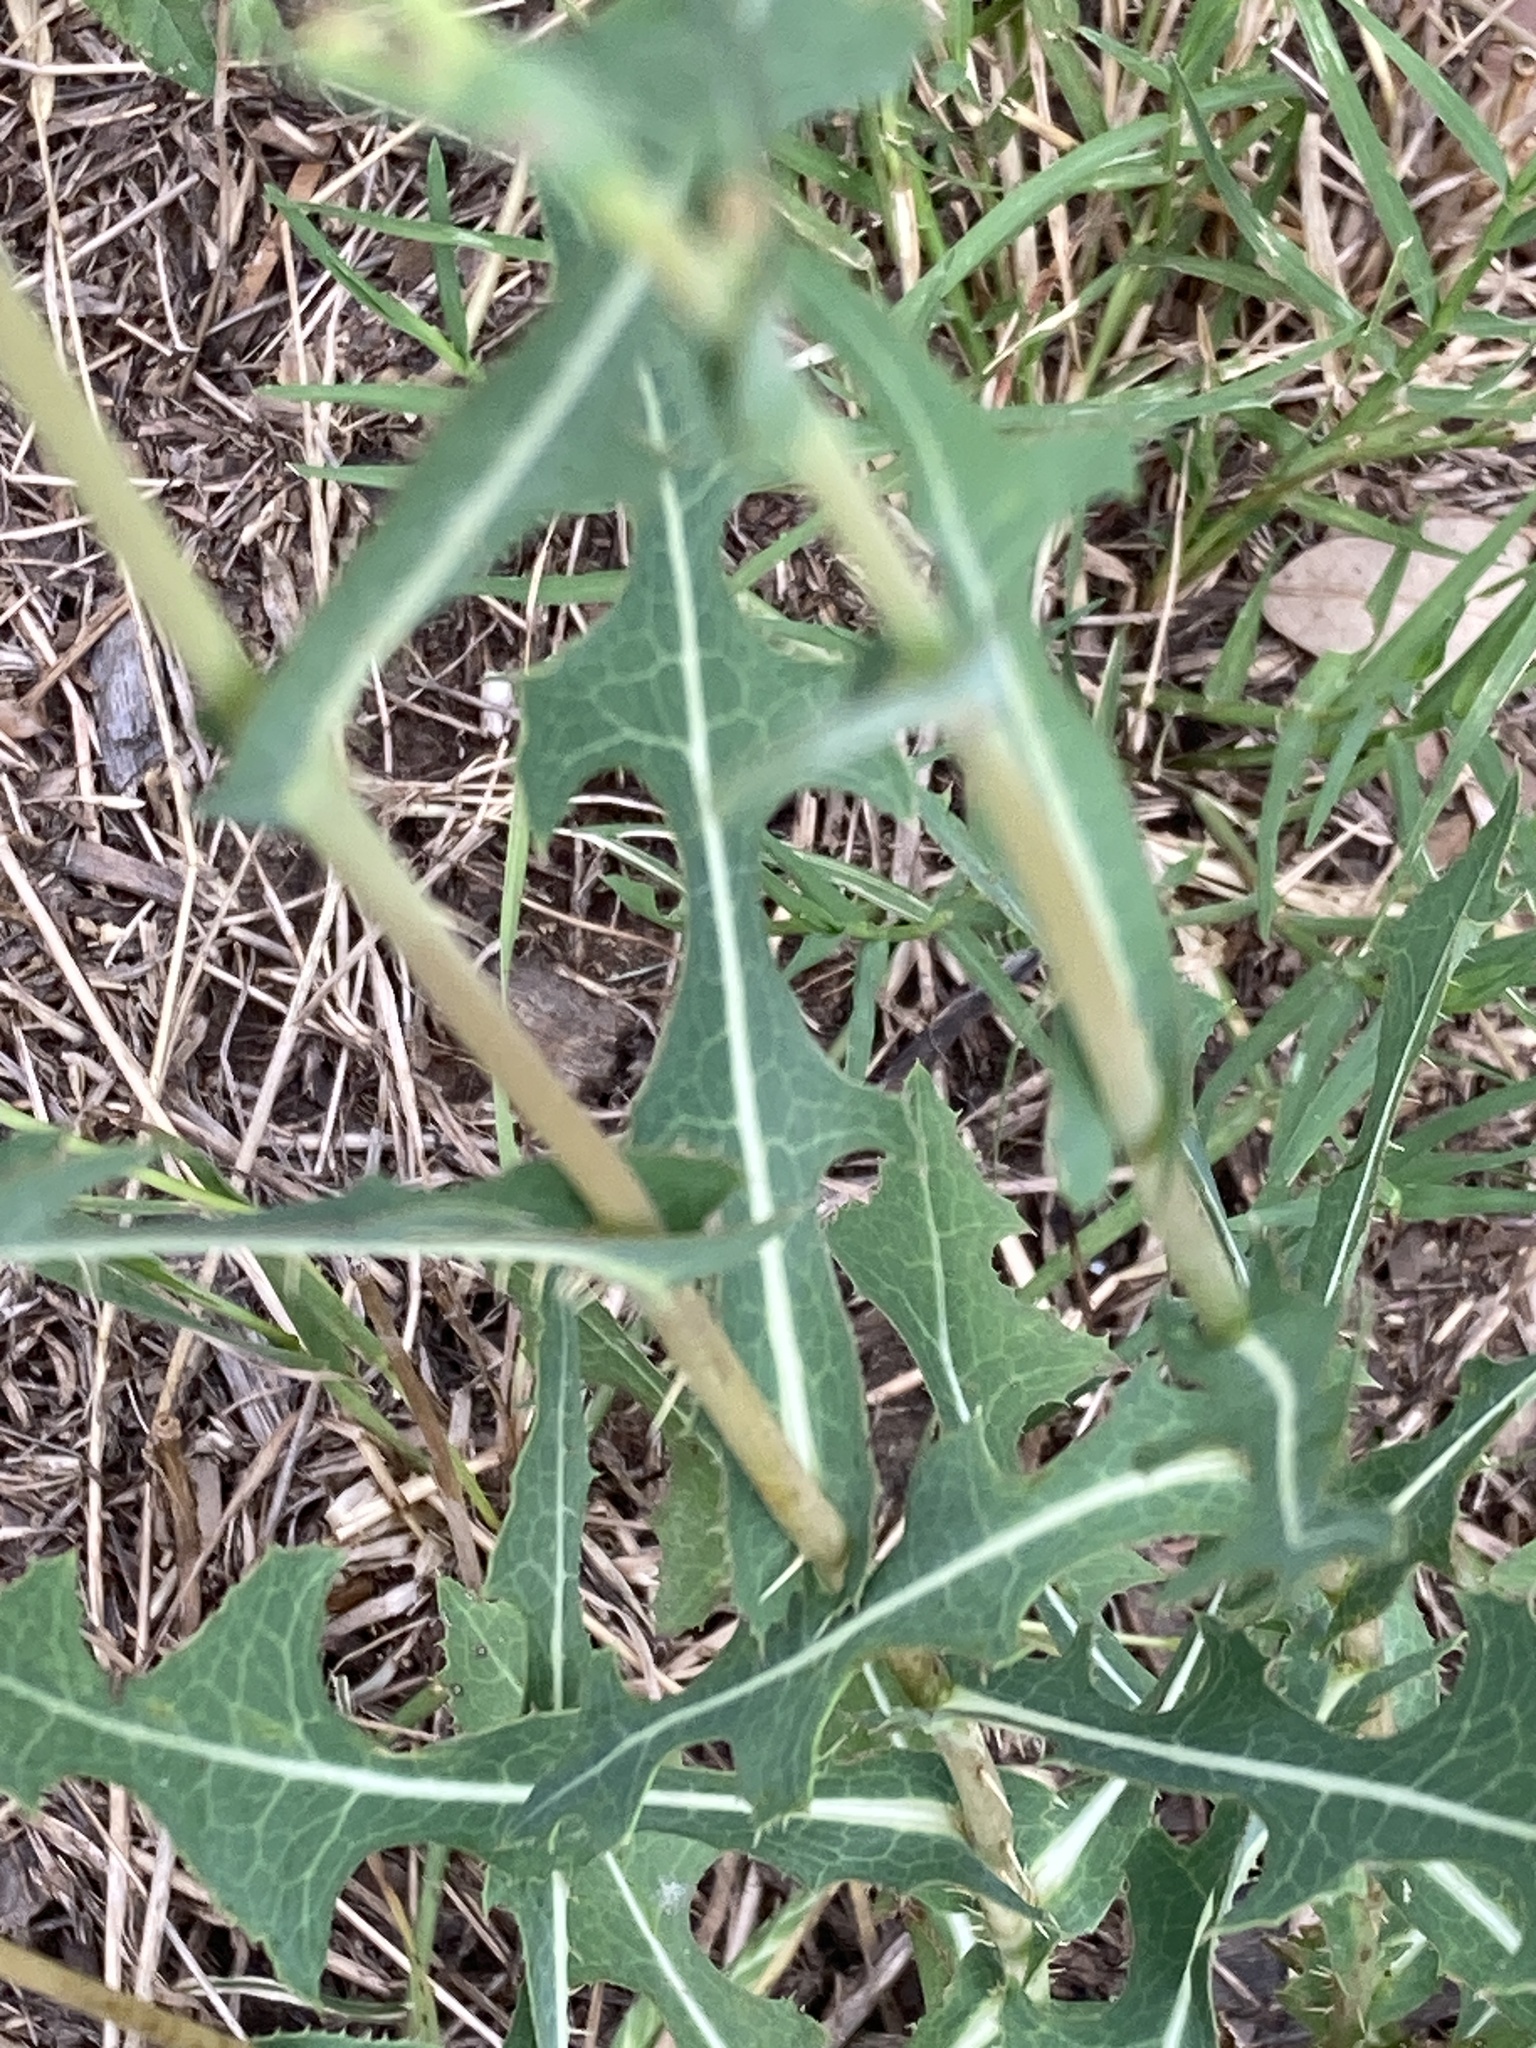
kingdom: Plantae
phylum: Tracheophyta
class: Magnoliopsida
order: Asterales
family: Asteraceae
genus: Lactuca
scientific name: Lactuca serriola
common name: Prickly lettuce
